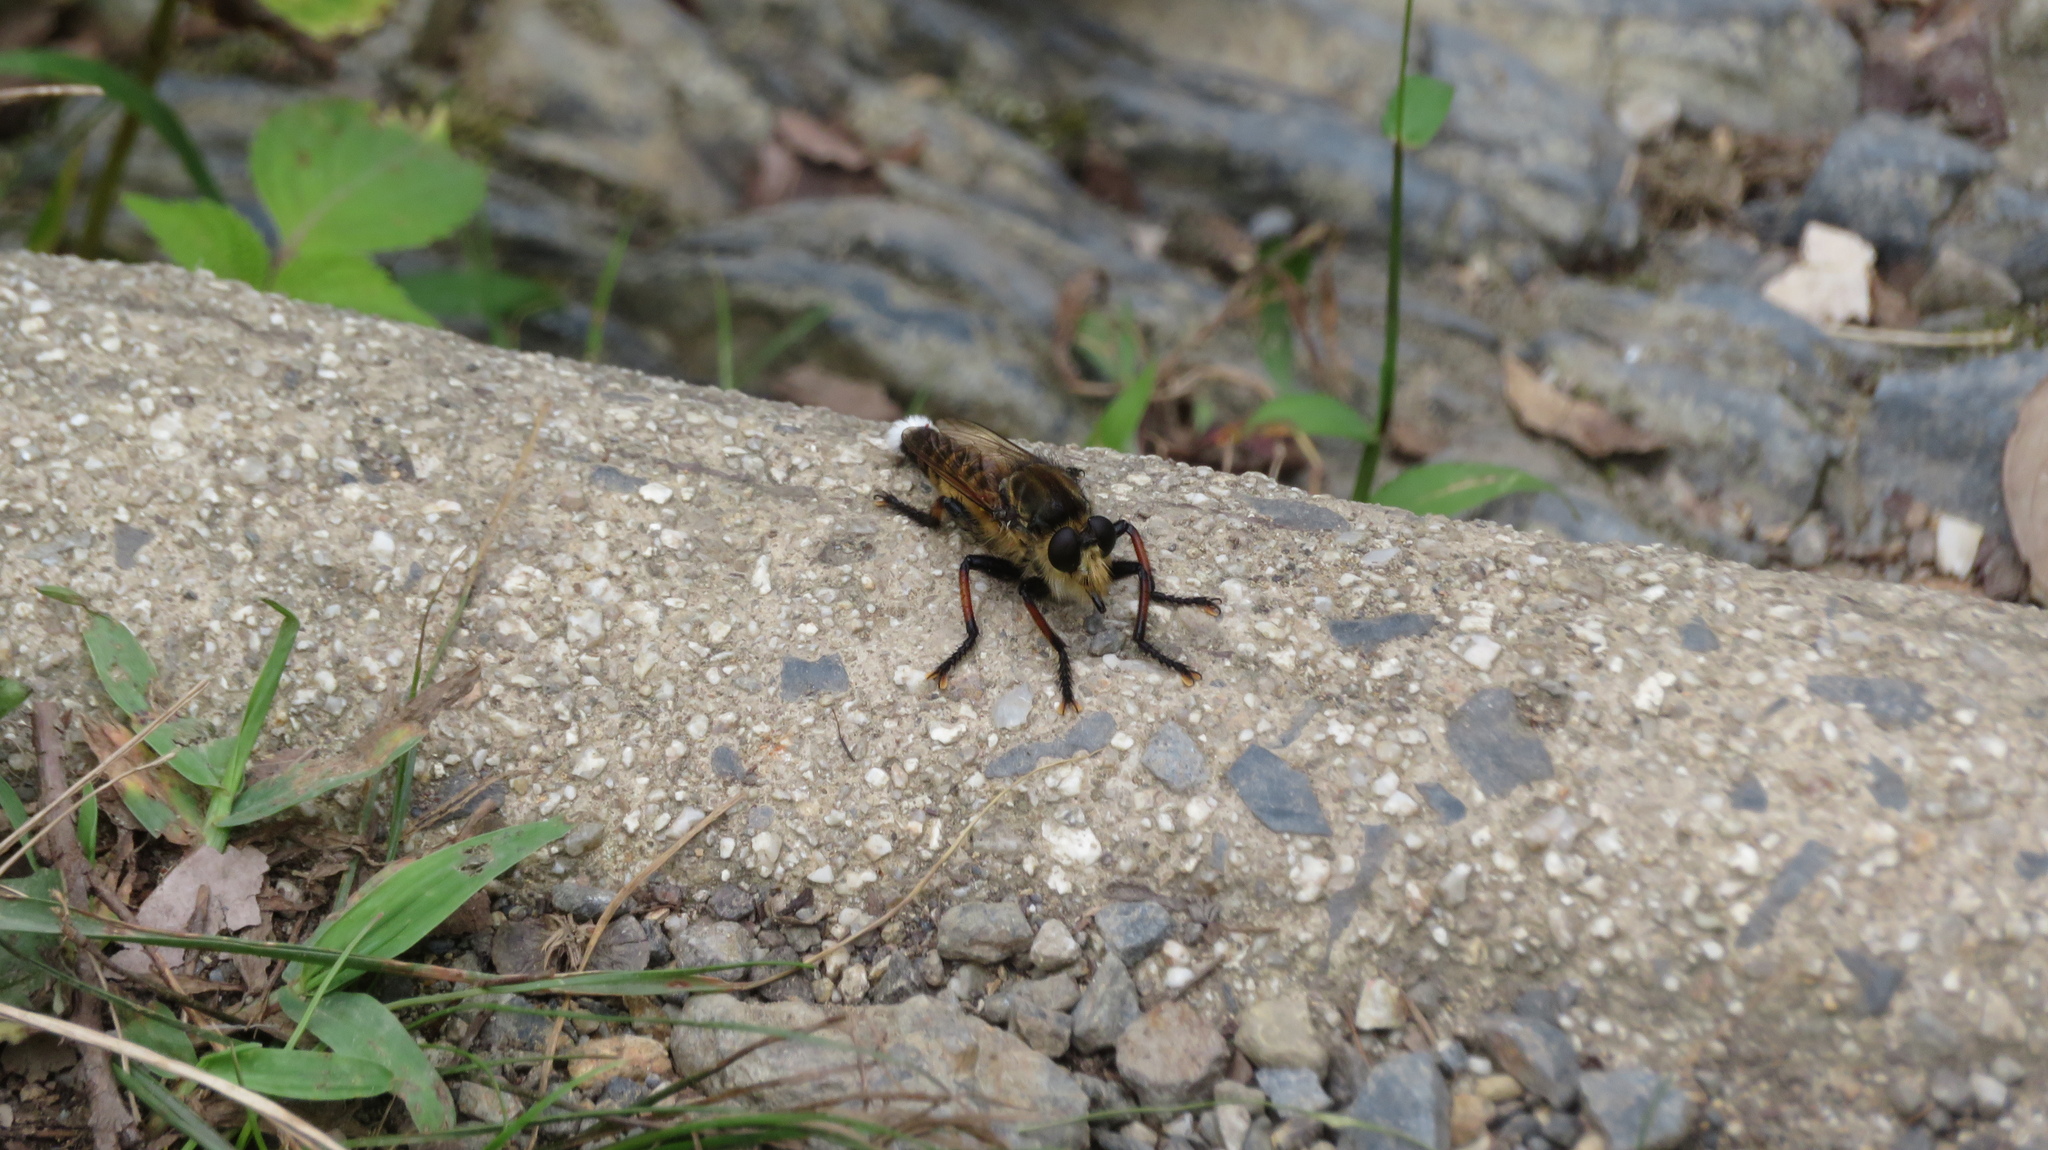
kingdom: Animalia
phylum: Arthropoda
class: Insecta
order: Diptera
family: Asilidae
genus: Promachus
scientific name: Promachus yesonicus
